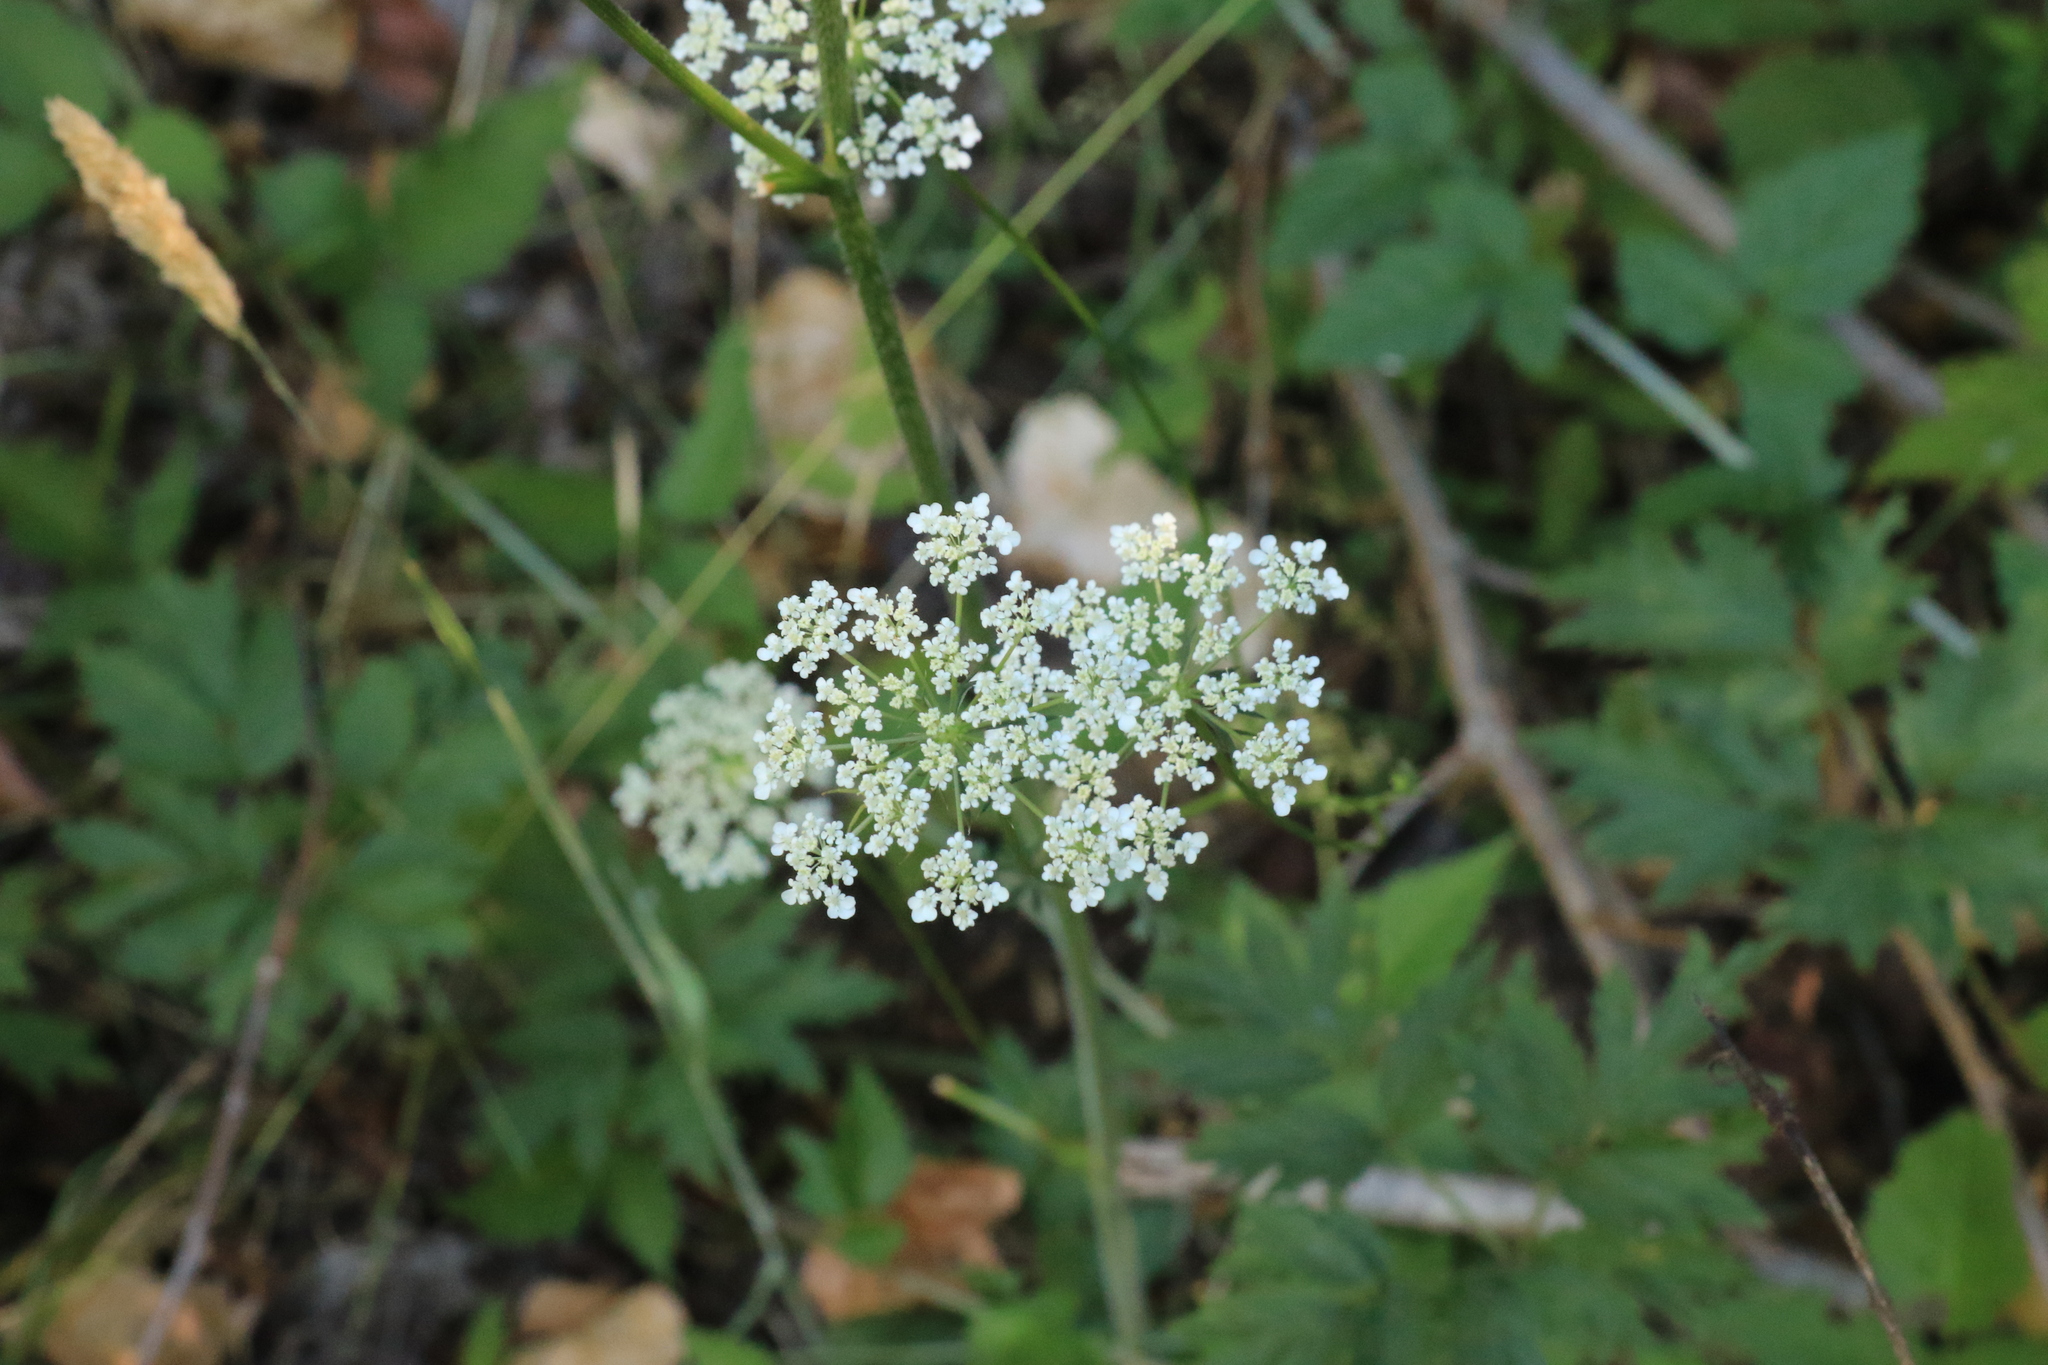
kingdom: Plantae
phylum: Tracheophyta
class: Magnoliopsida
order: Apiales
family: Apiaceae
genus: Daucus
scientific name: Daucus carota
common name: Wild carrot
